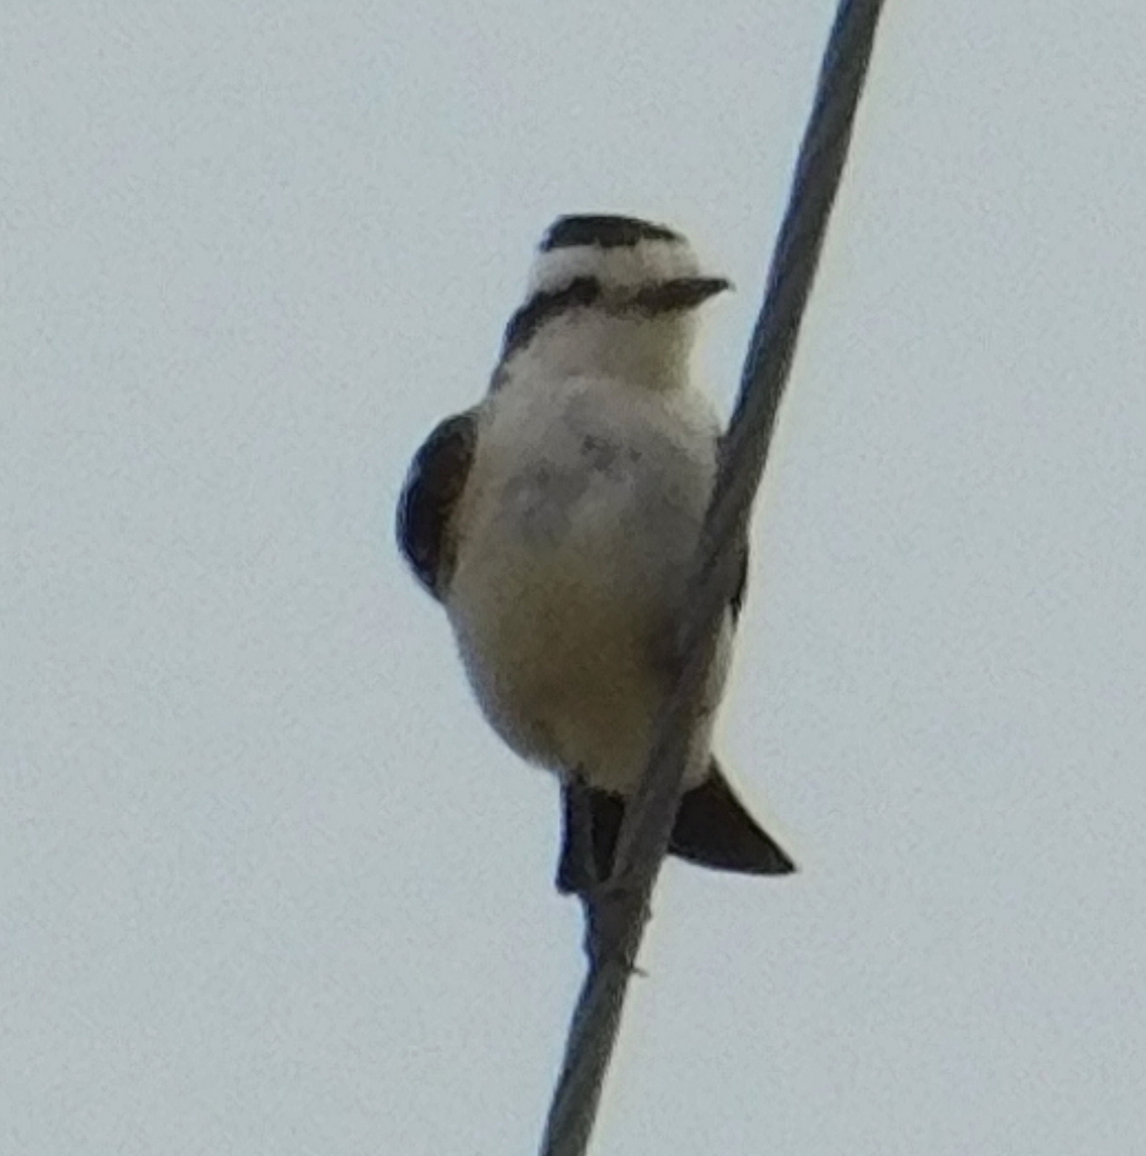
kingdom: Animalia
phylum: Chordata
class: Aves
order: Passeriformes
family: Tyrannidae
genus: Xolmis
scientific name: Xolmis coronatus
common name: Black-crowned monjita
